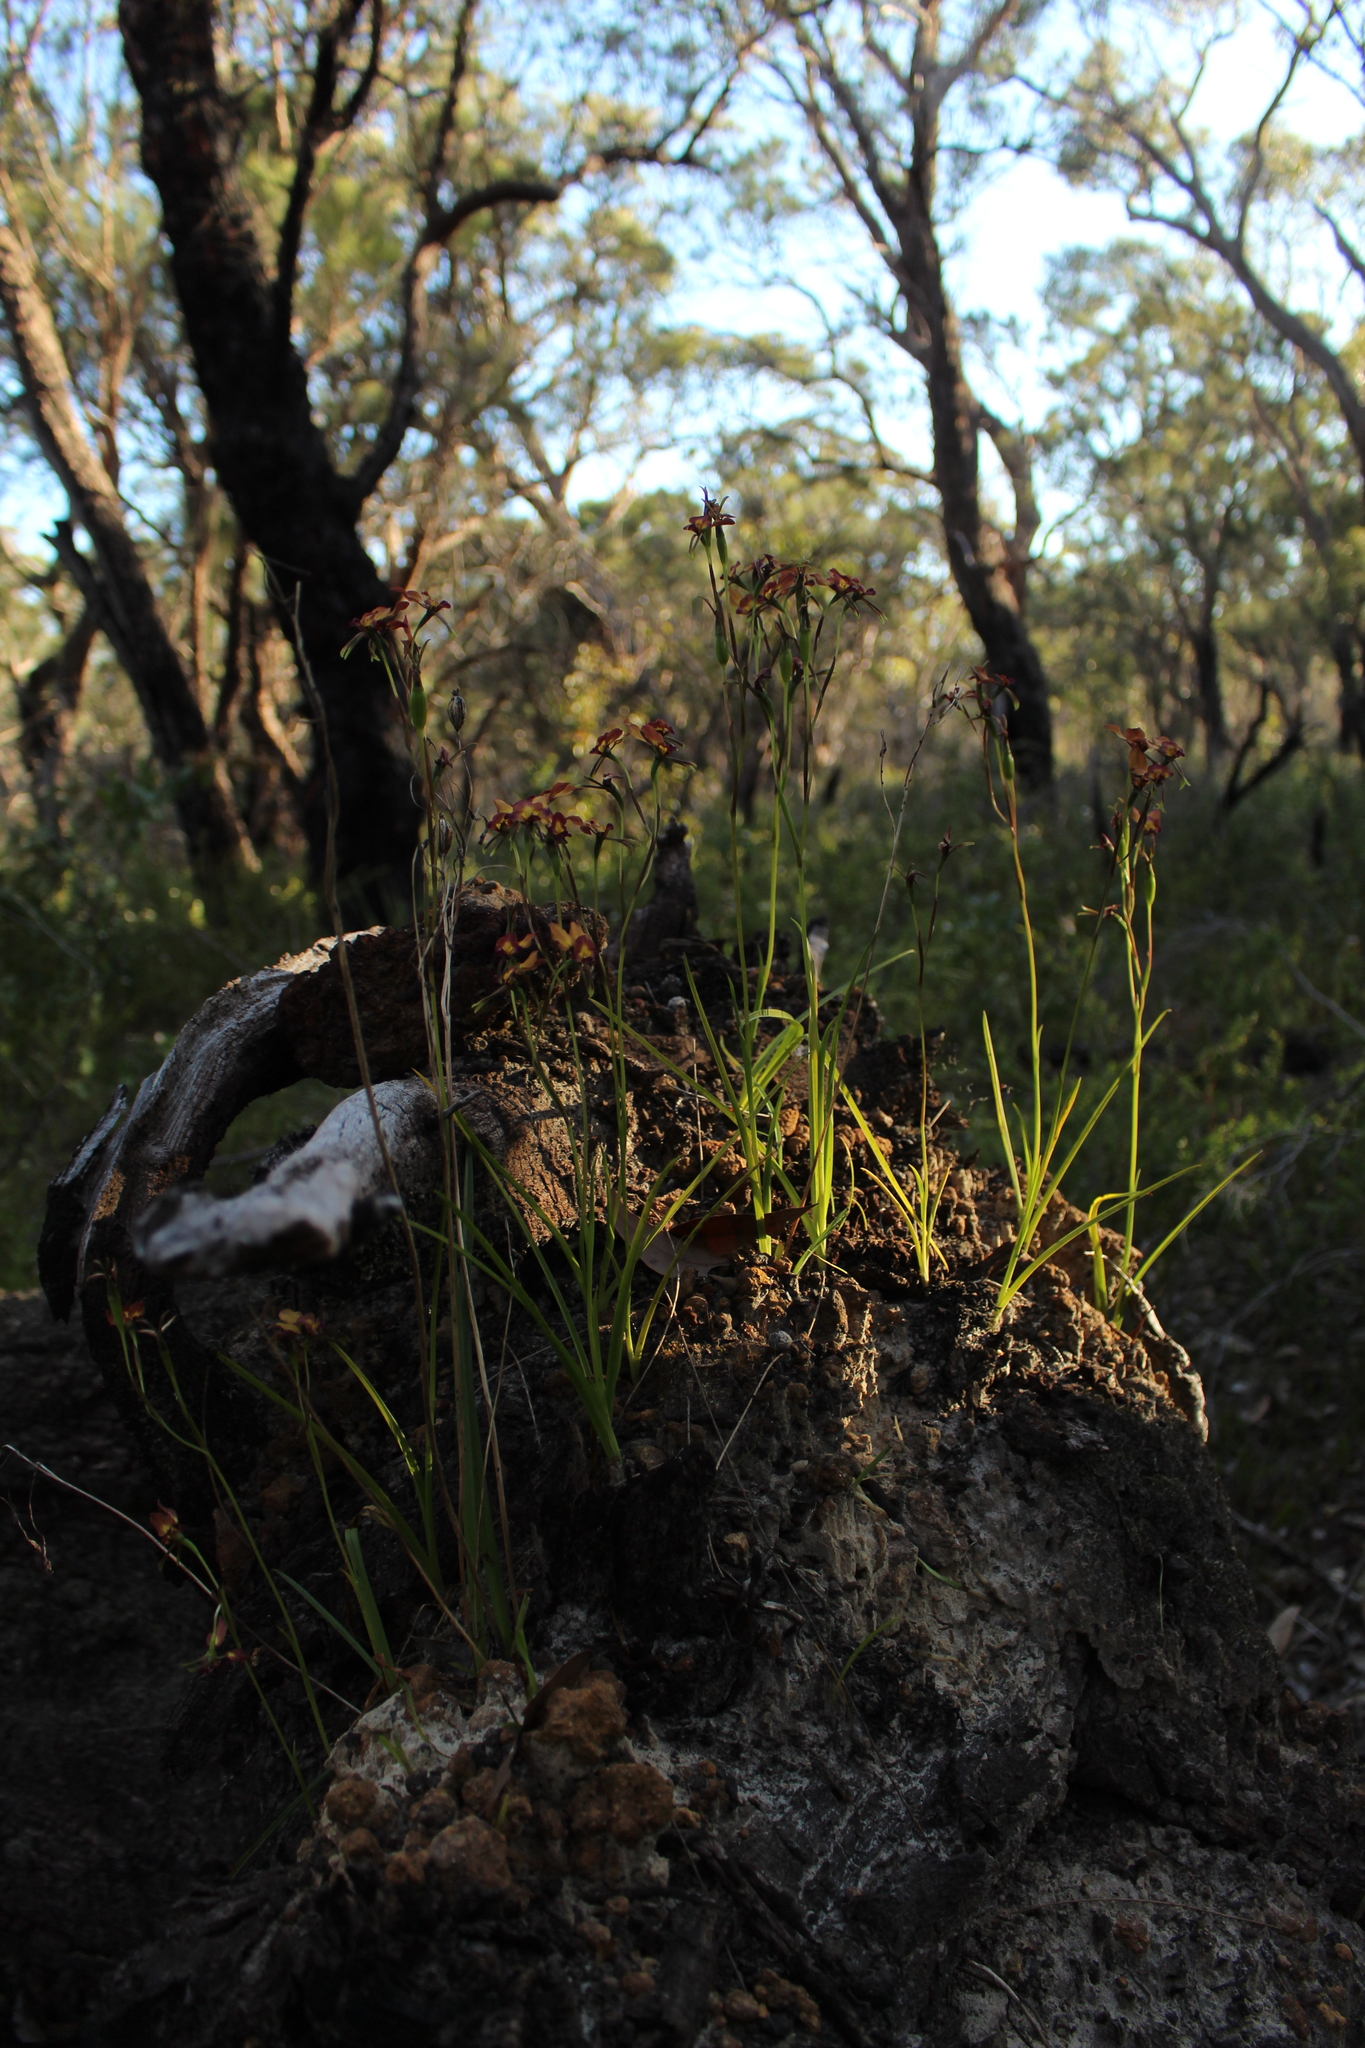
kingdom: Plantae
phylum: Tracheophyta
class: Liliopsida
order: Asparagales
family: Orchidaceae
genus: Diuris
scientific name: Diuris jonesii
